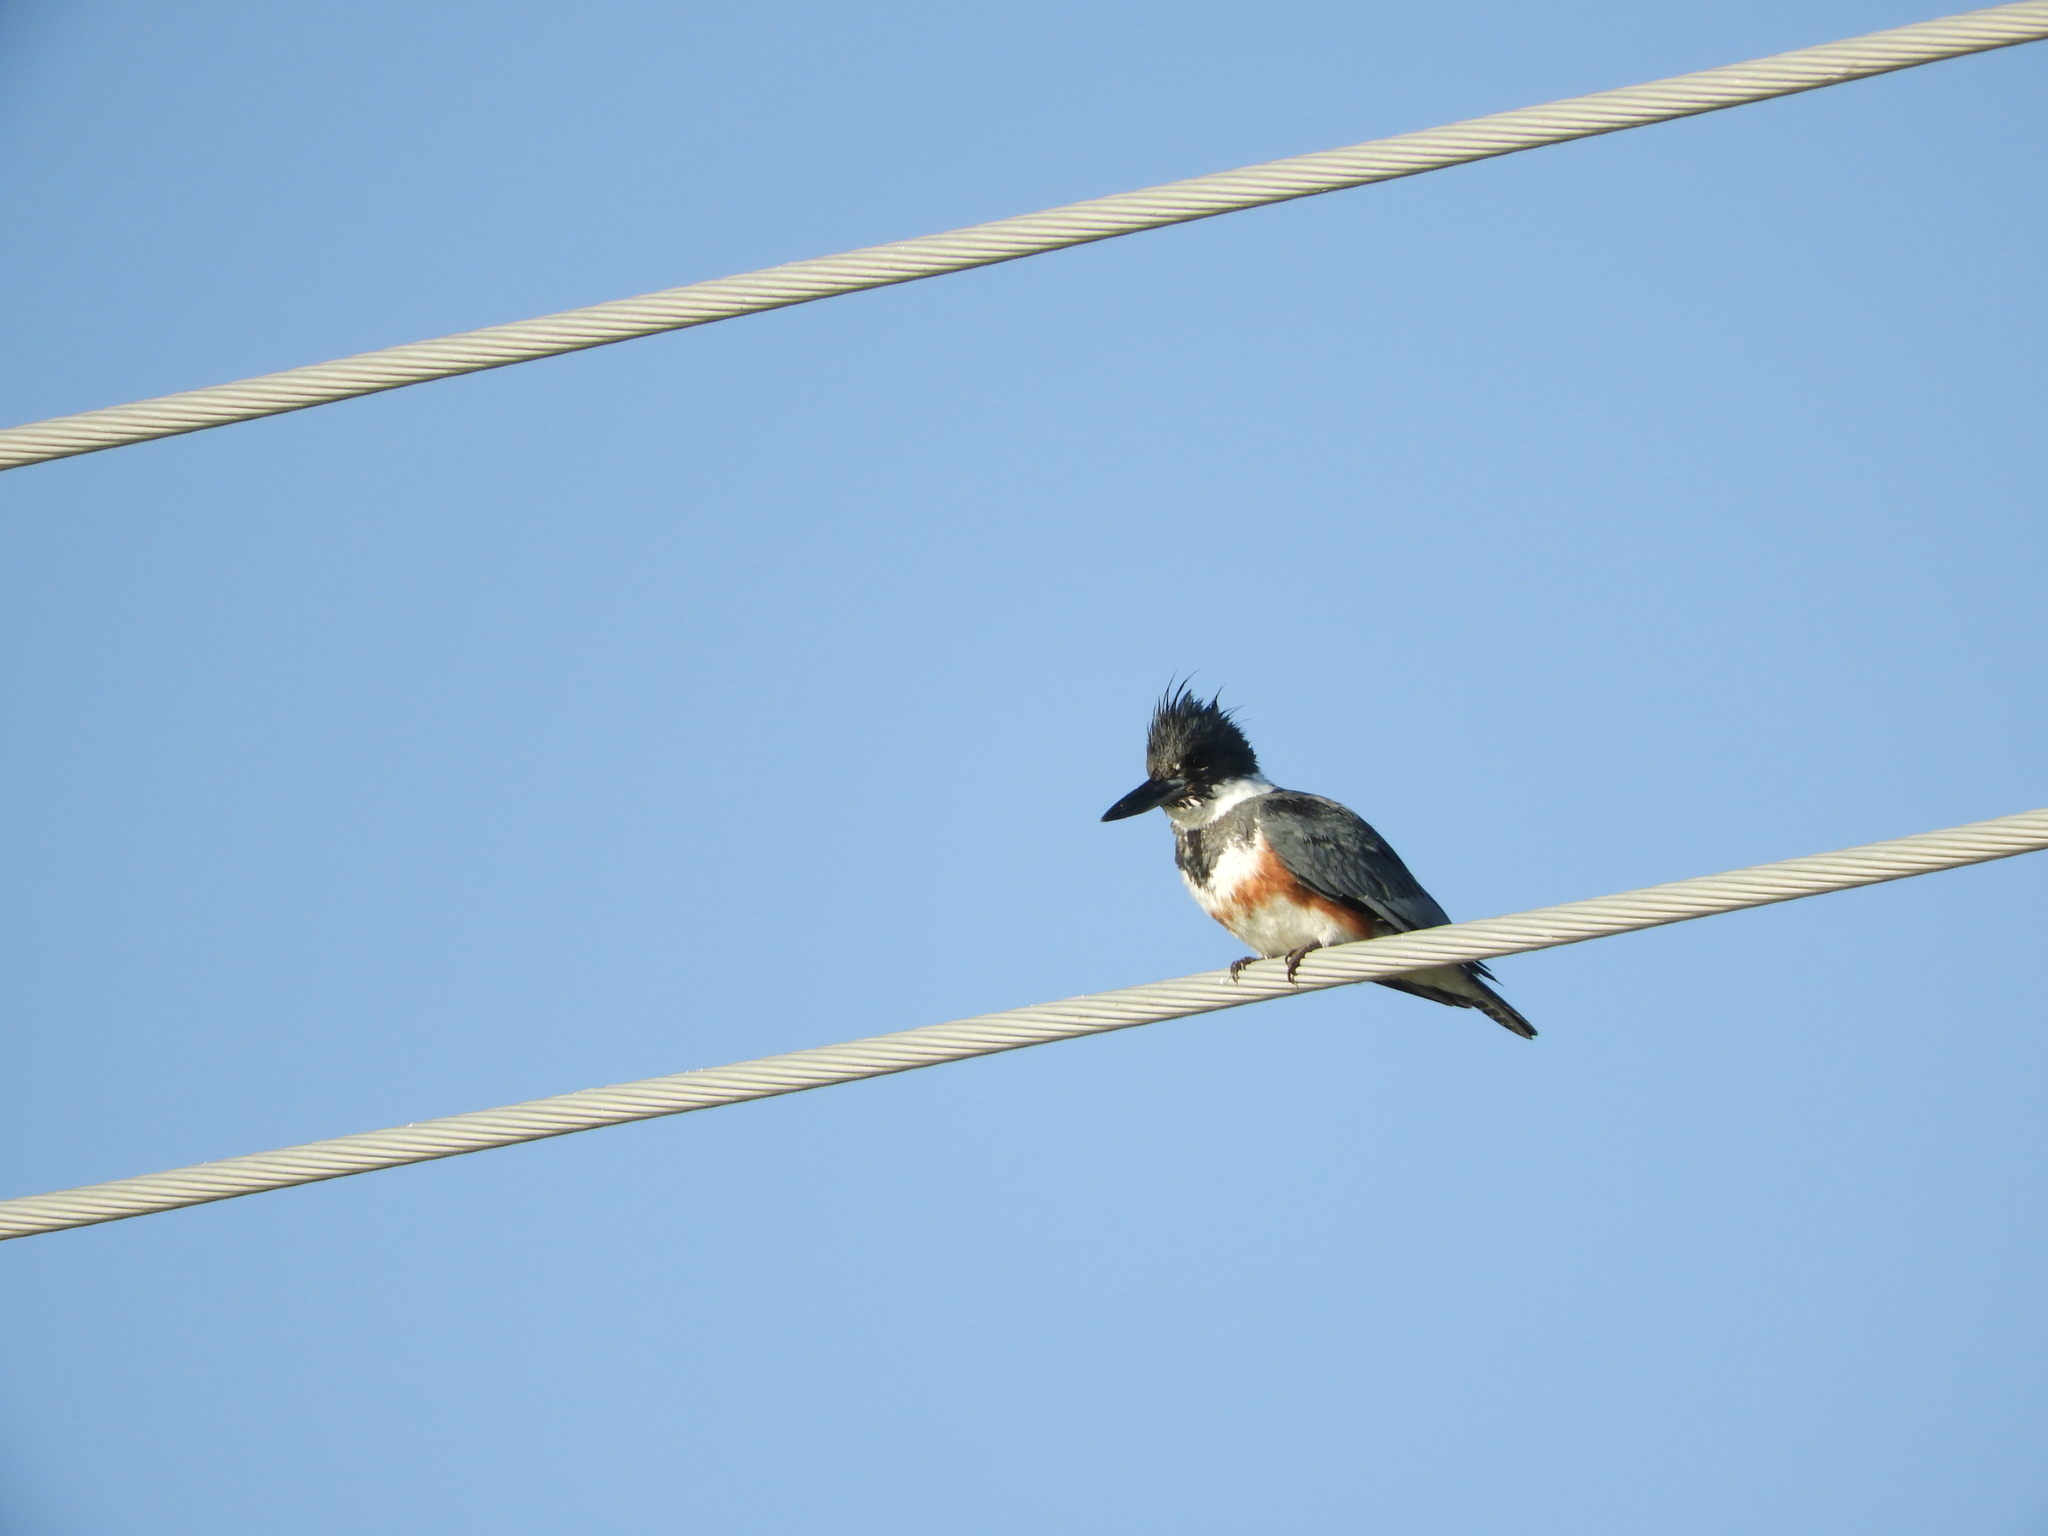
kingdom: Animalia
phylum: Chordata
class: Aves
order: Coraciiformes
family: Alcedinidae
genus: Megaceryle
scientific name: Megaceryle alcyon
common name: Belted kingfisher
